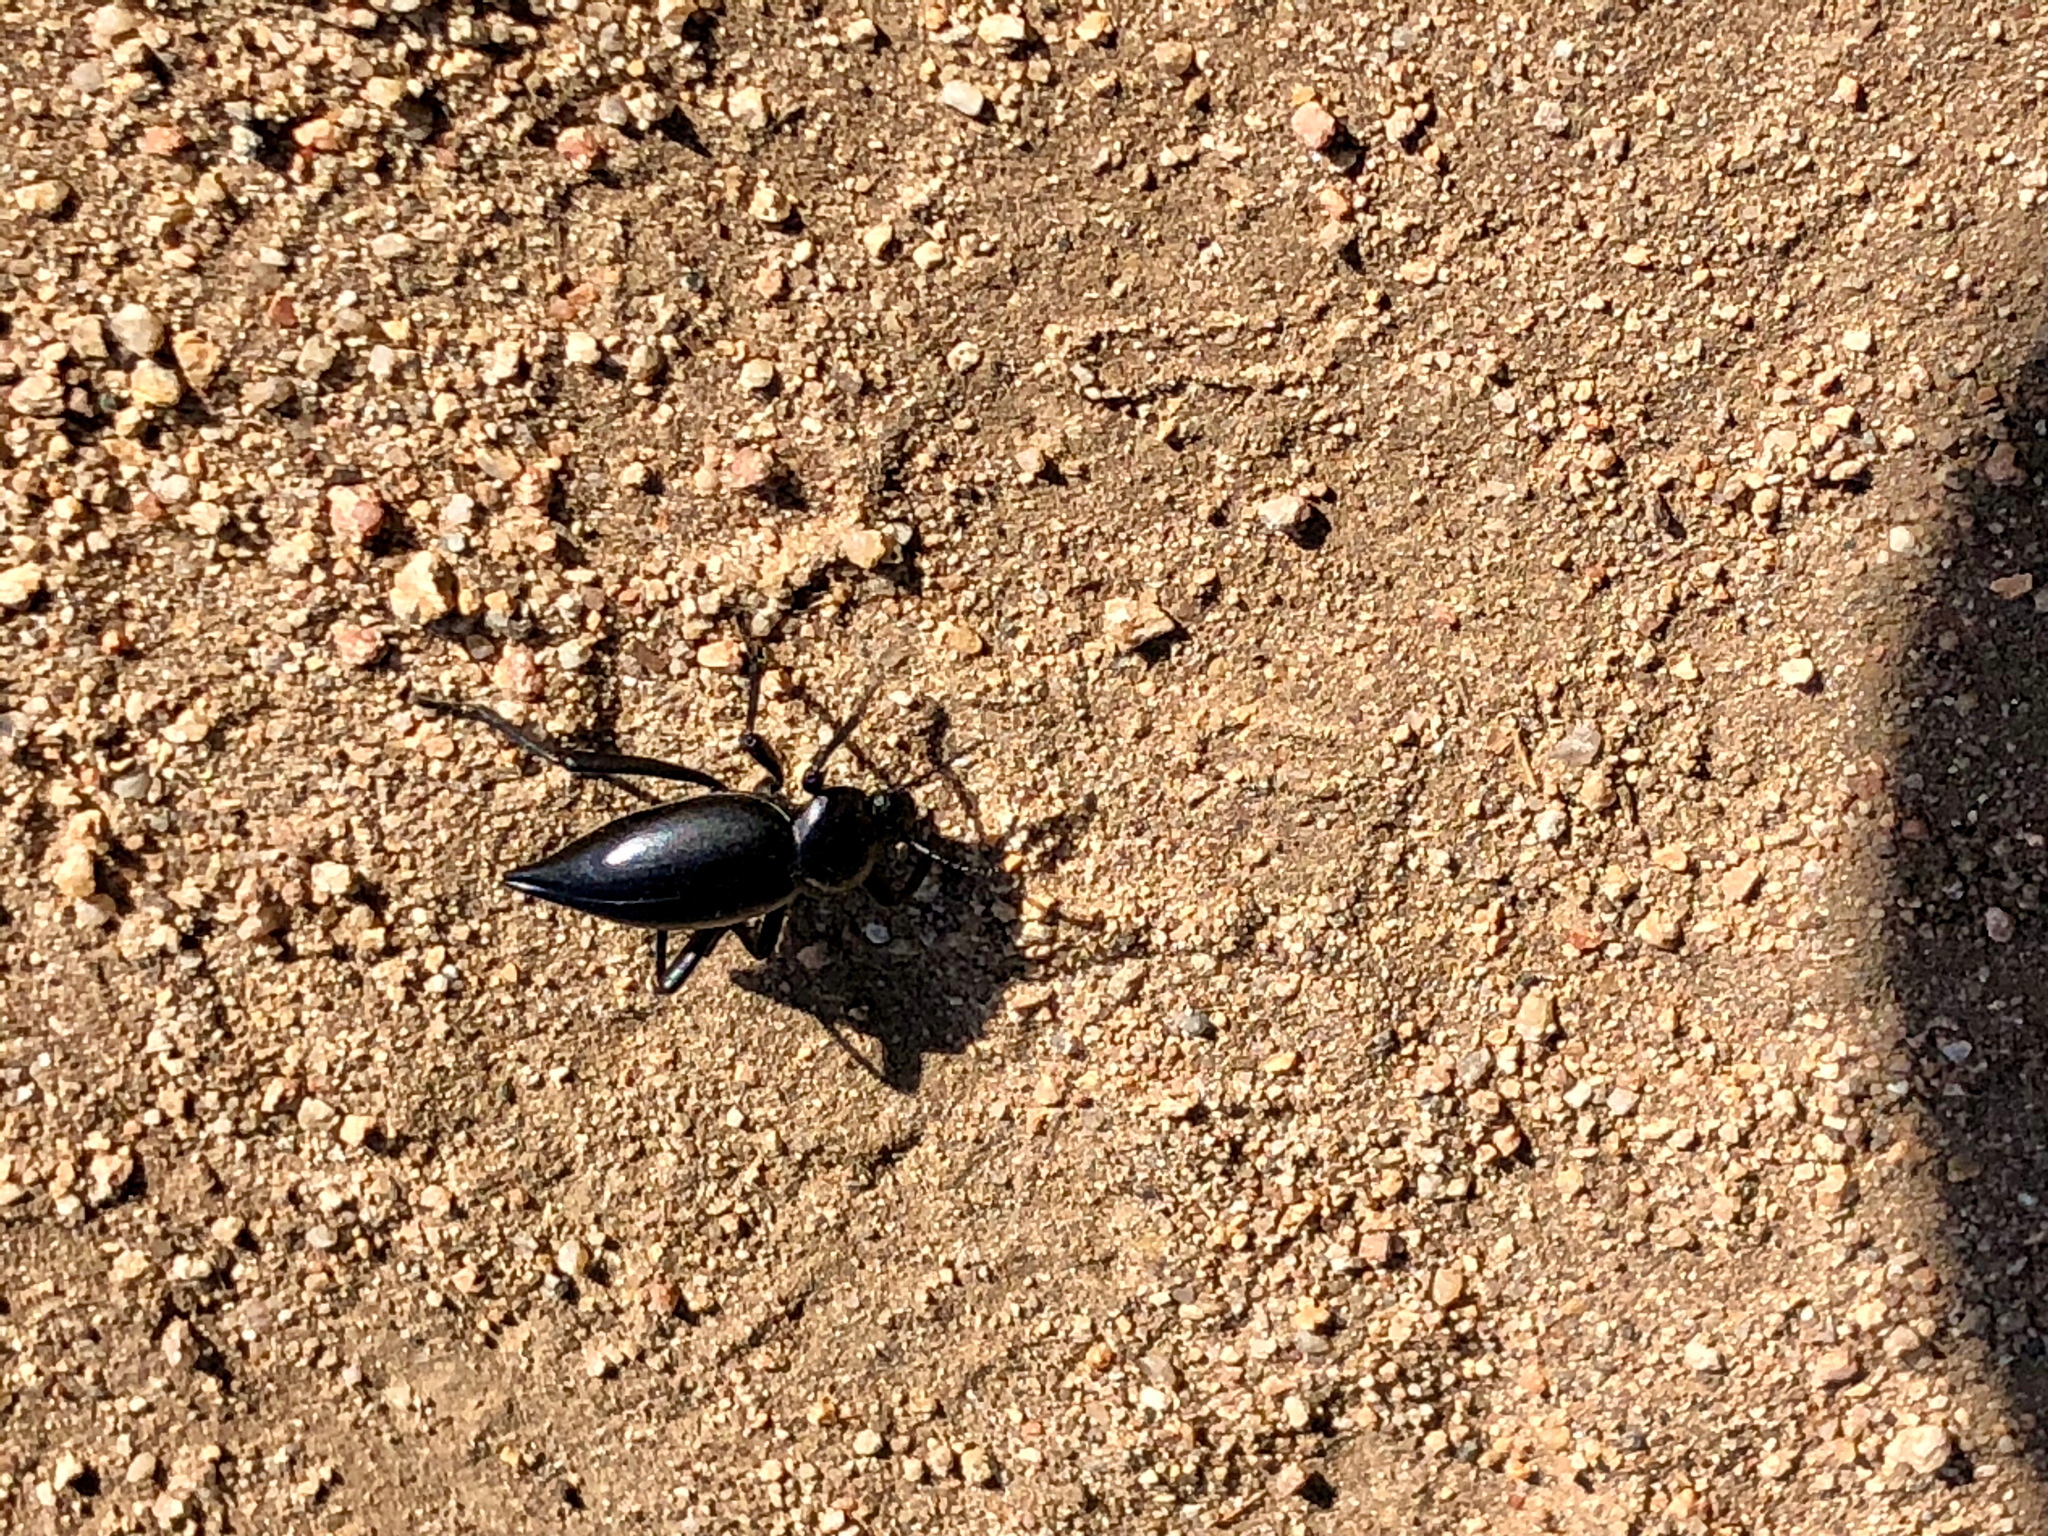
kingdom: Animalia
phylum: Arthropoda
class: Insecta
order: Coleoptera
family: Tenebrionidae
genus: Eleodes
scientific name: Eleodes acuticauda
